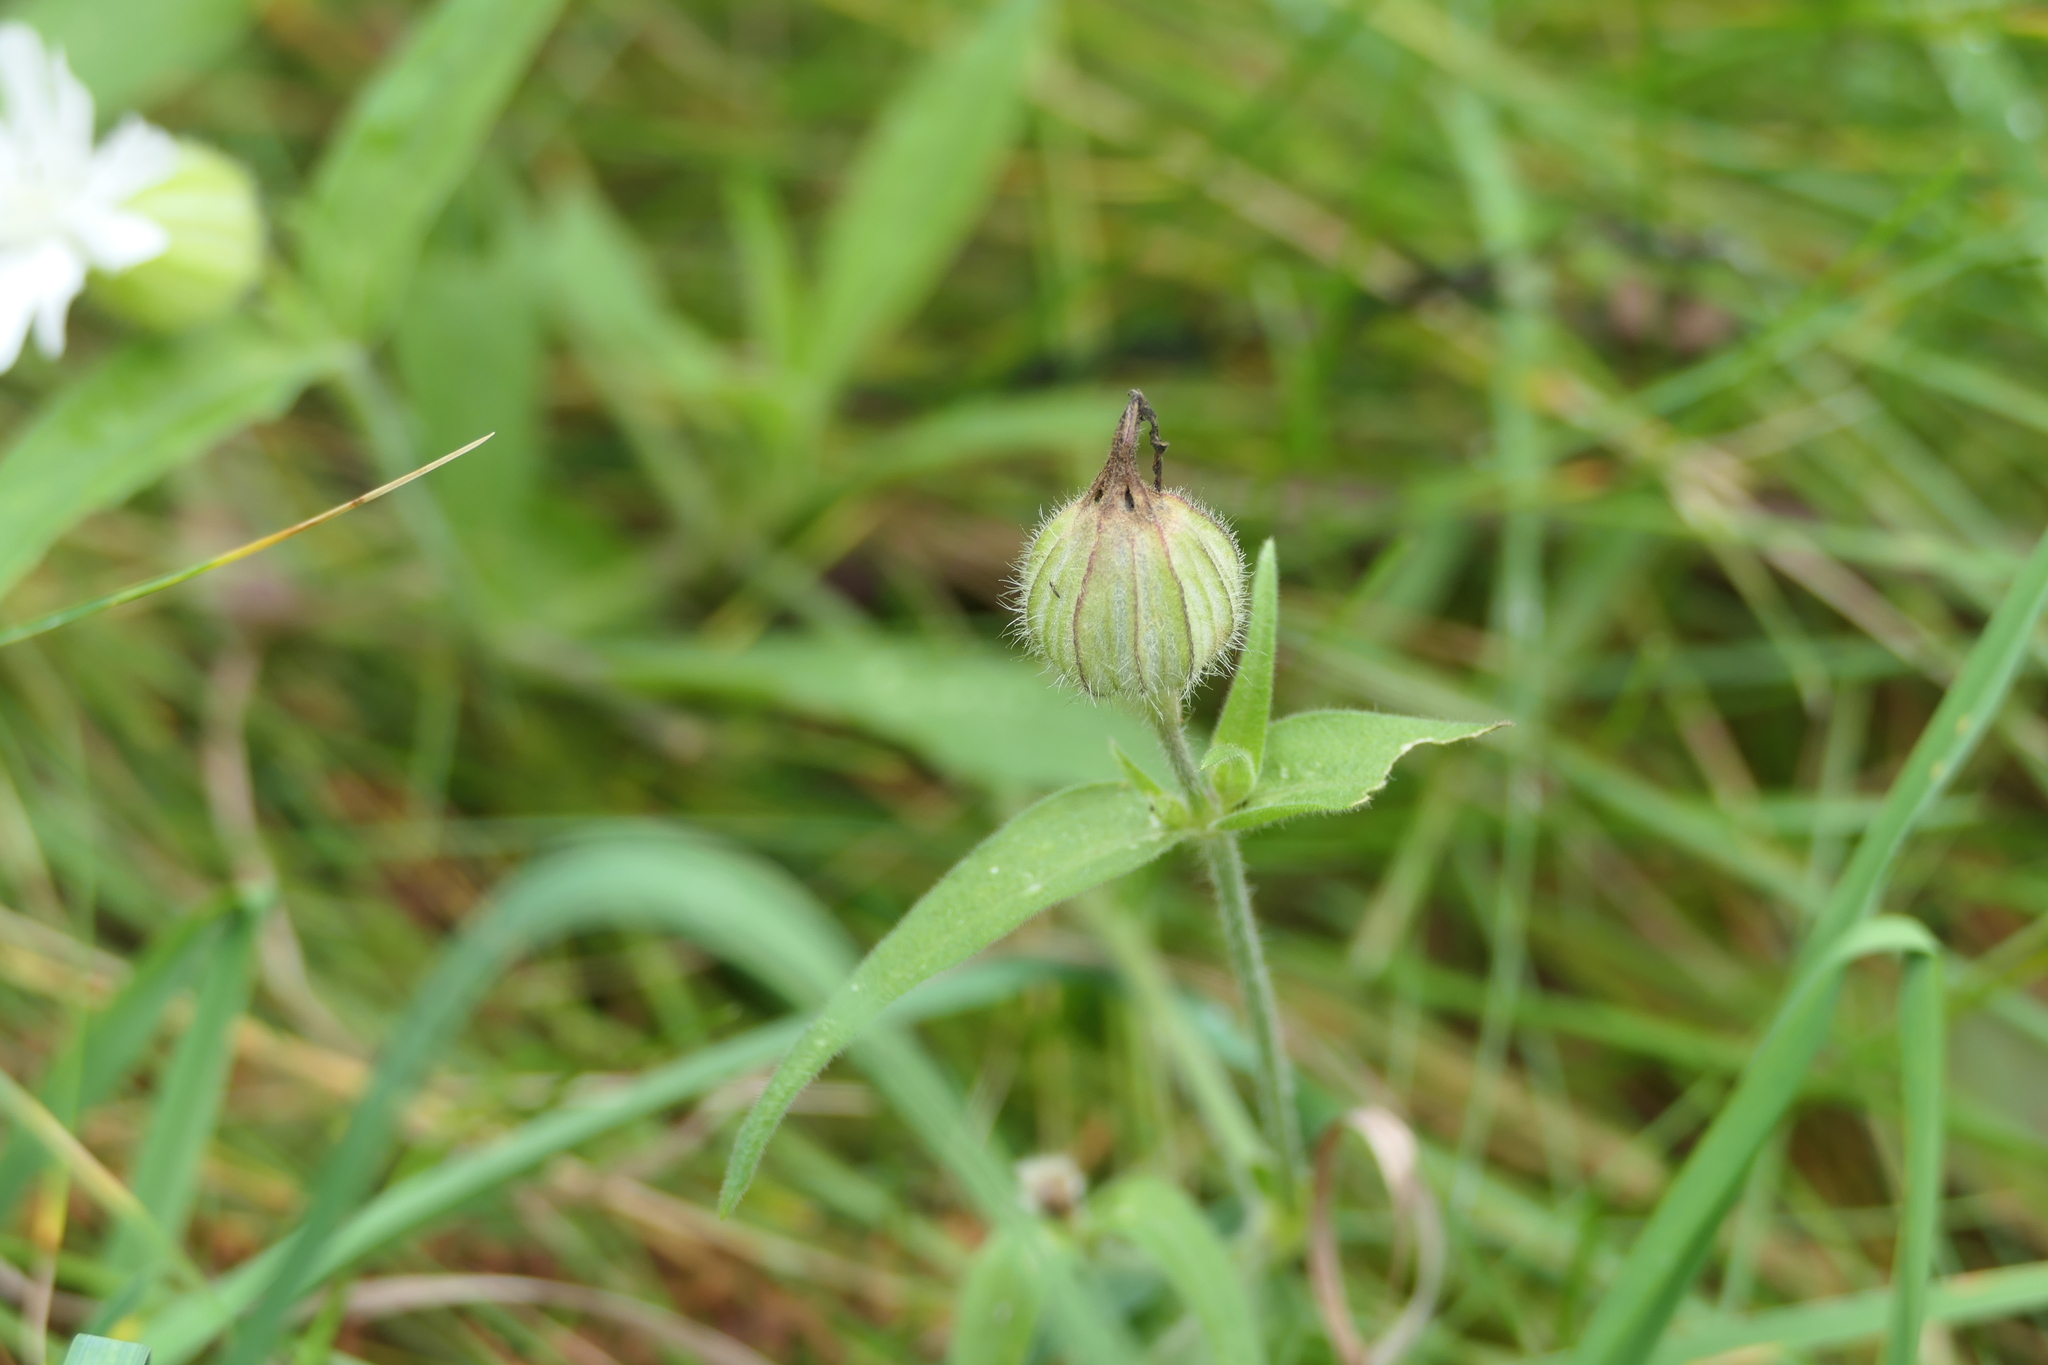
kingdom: Plantae
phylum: Tracheophyta
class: Magnoliopsida
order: Caryophyllales
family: Caryophyllaceae
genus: Silene
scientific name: Silene latifolia
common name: White campion
